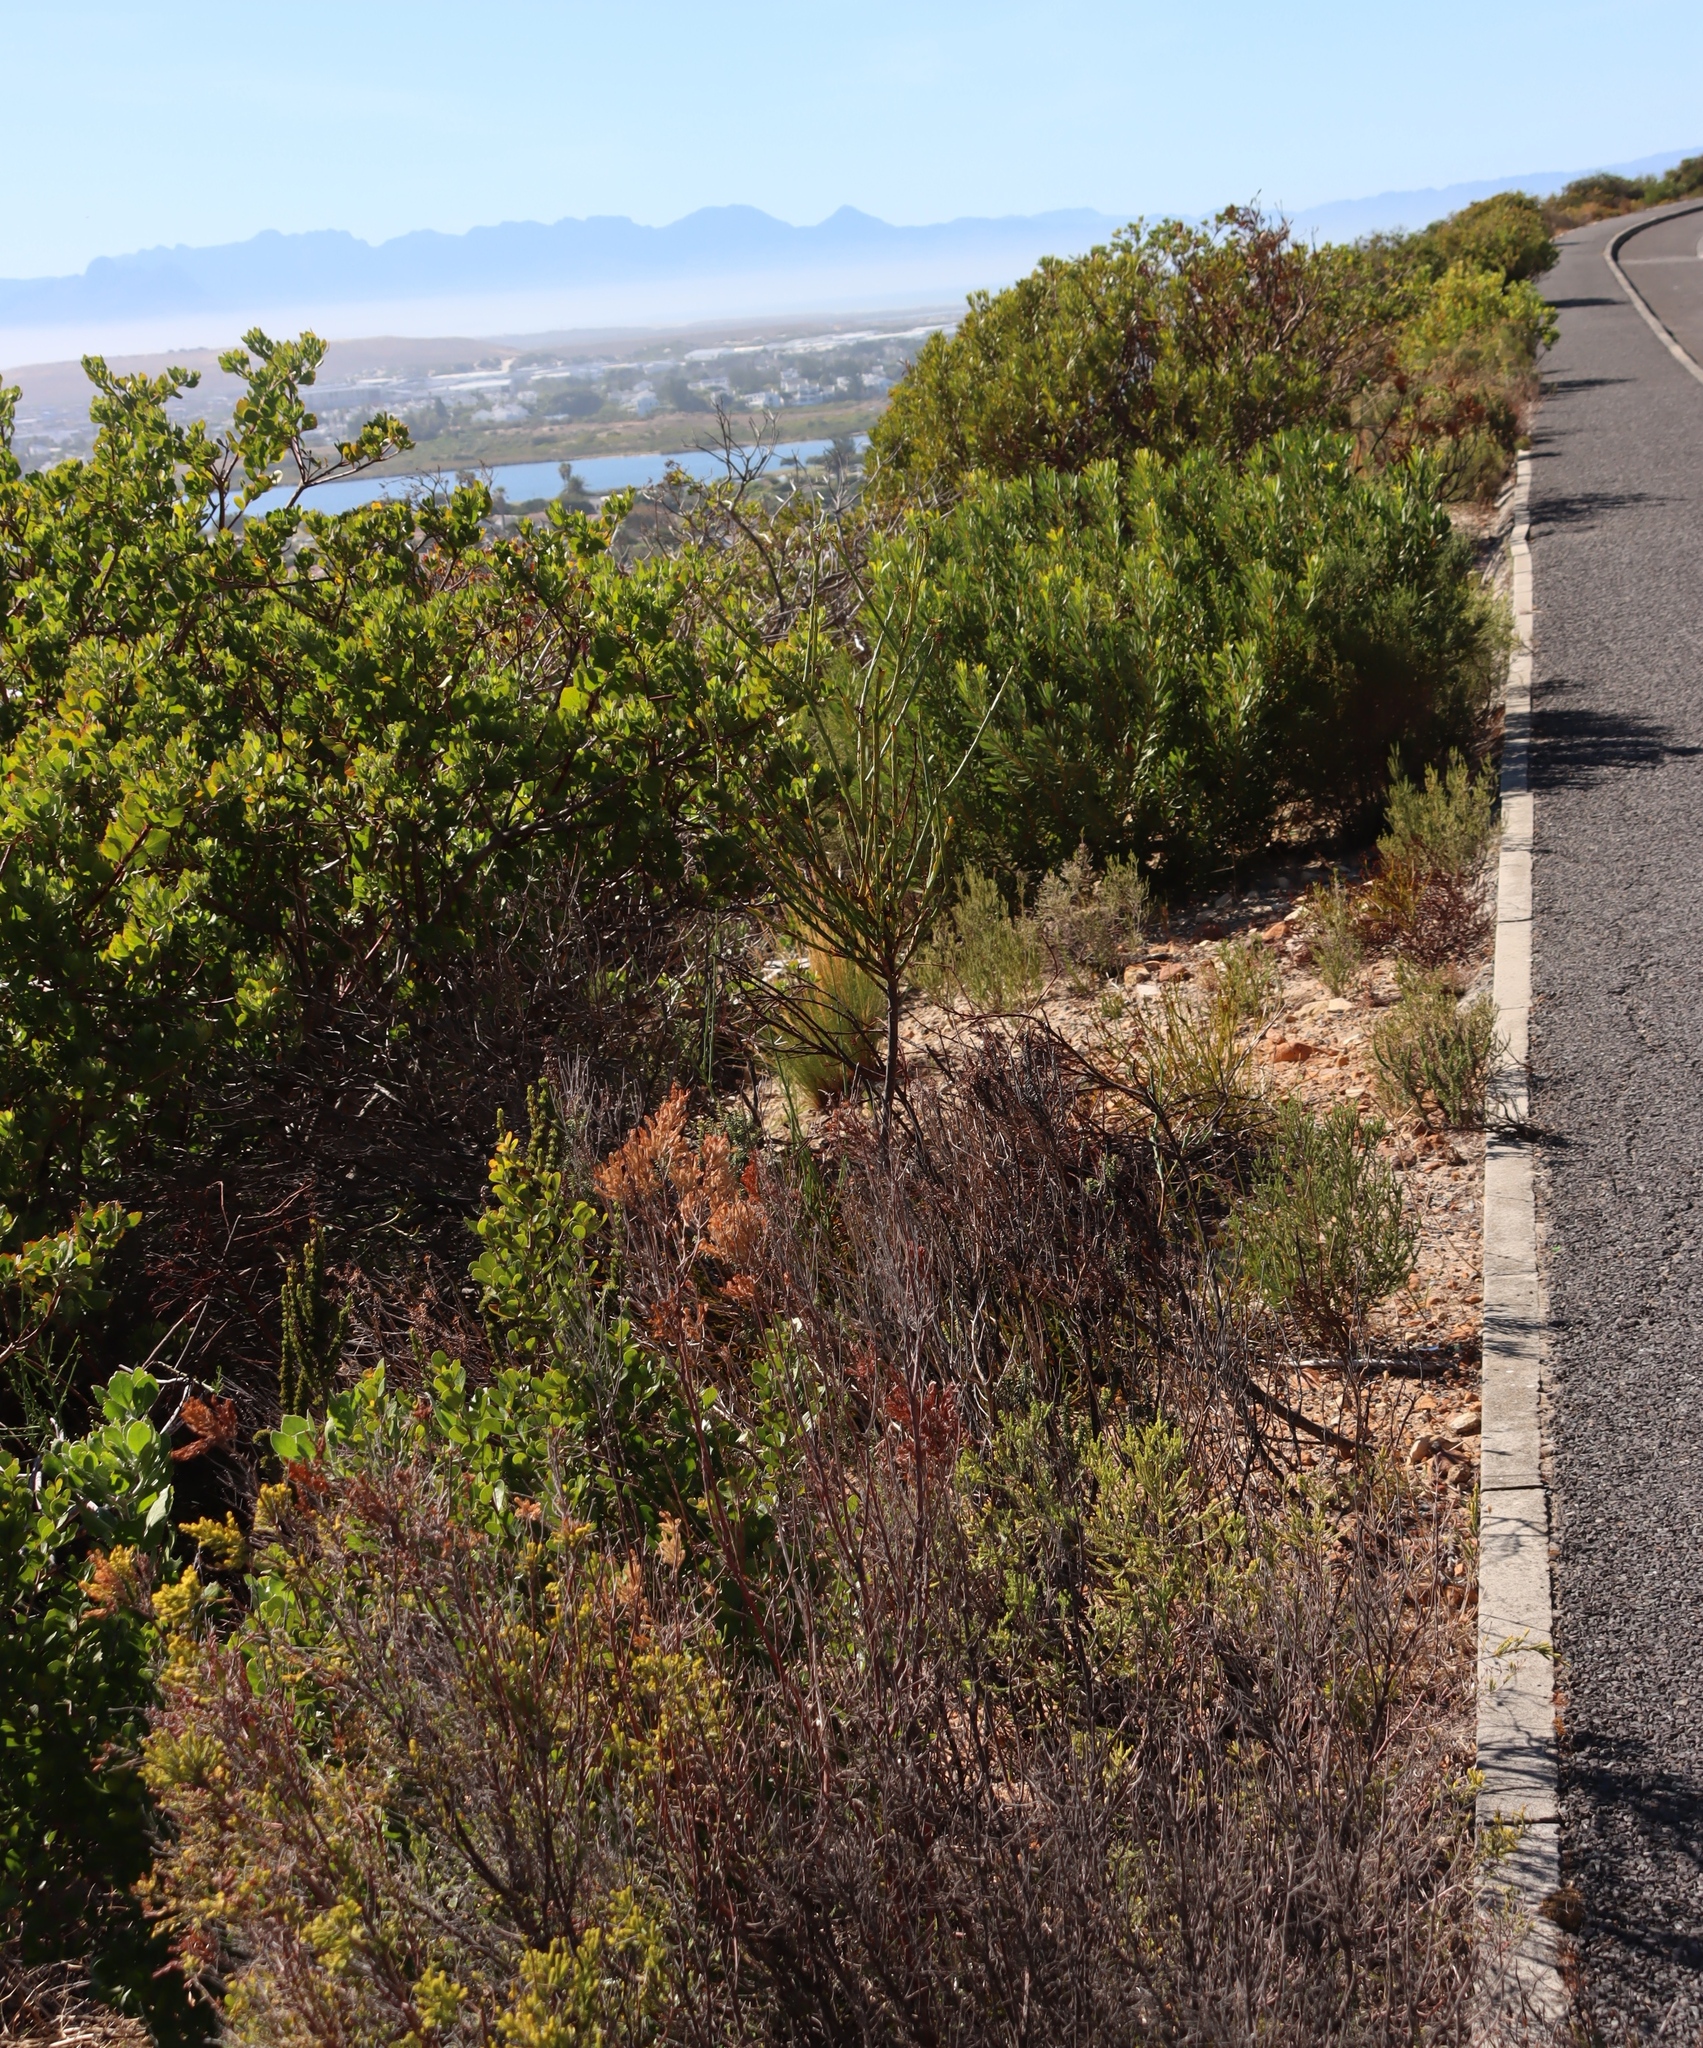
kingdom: Plantae
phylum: Tracheophyta
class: Magnoliopsida
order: Santalales
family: Thesiaceae
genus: Thesium
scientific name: Thesium strictum
